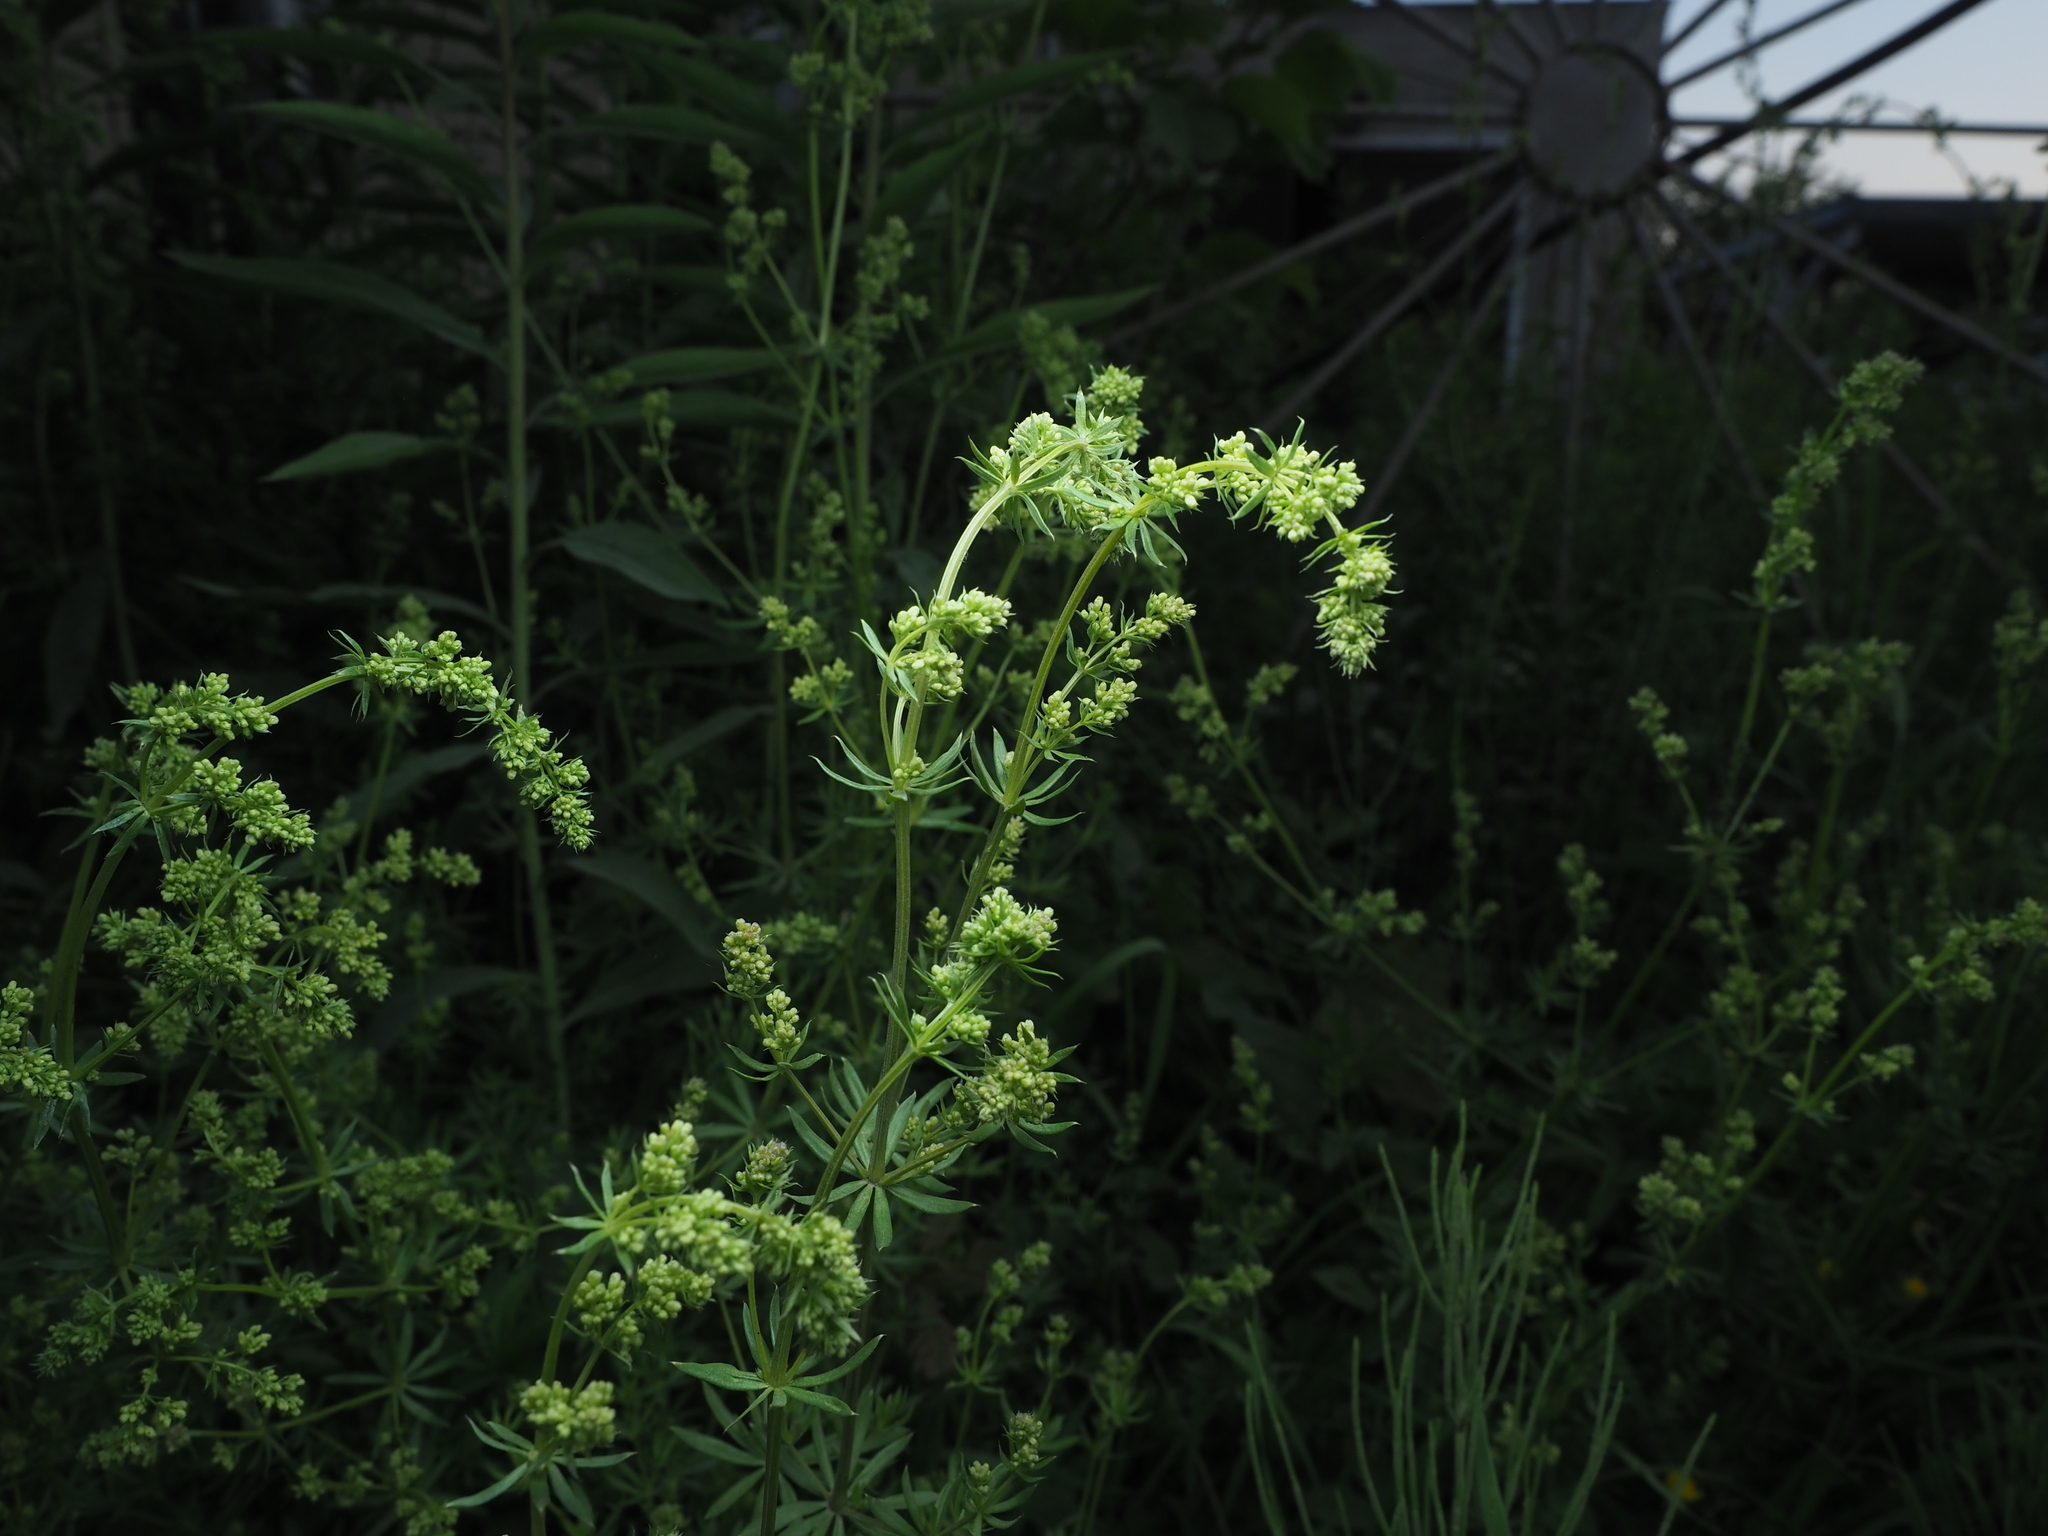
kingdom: Plantae
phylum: Tracheophyta
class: Magnoliopsida
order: Gentianales
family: Rubiaceae
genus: Galium
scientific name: Galium verum
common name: Lady's bedstraw
